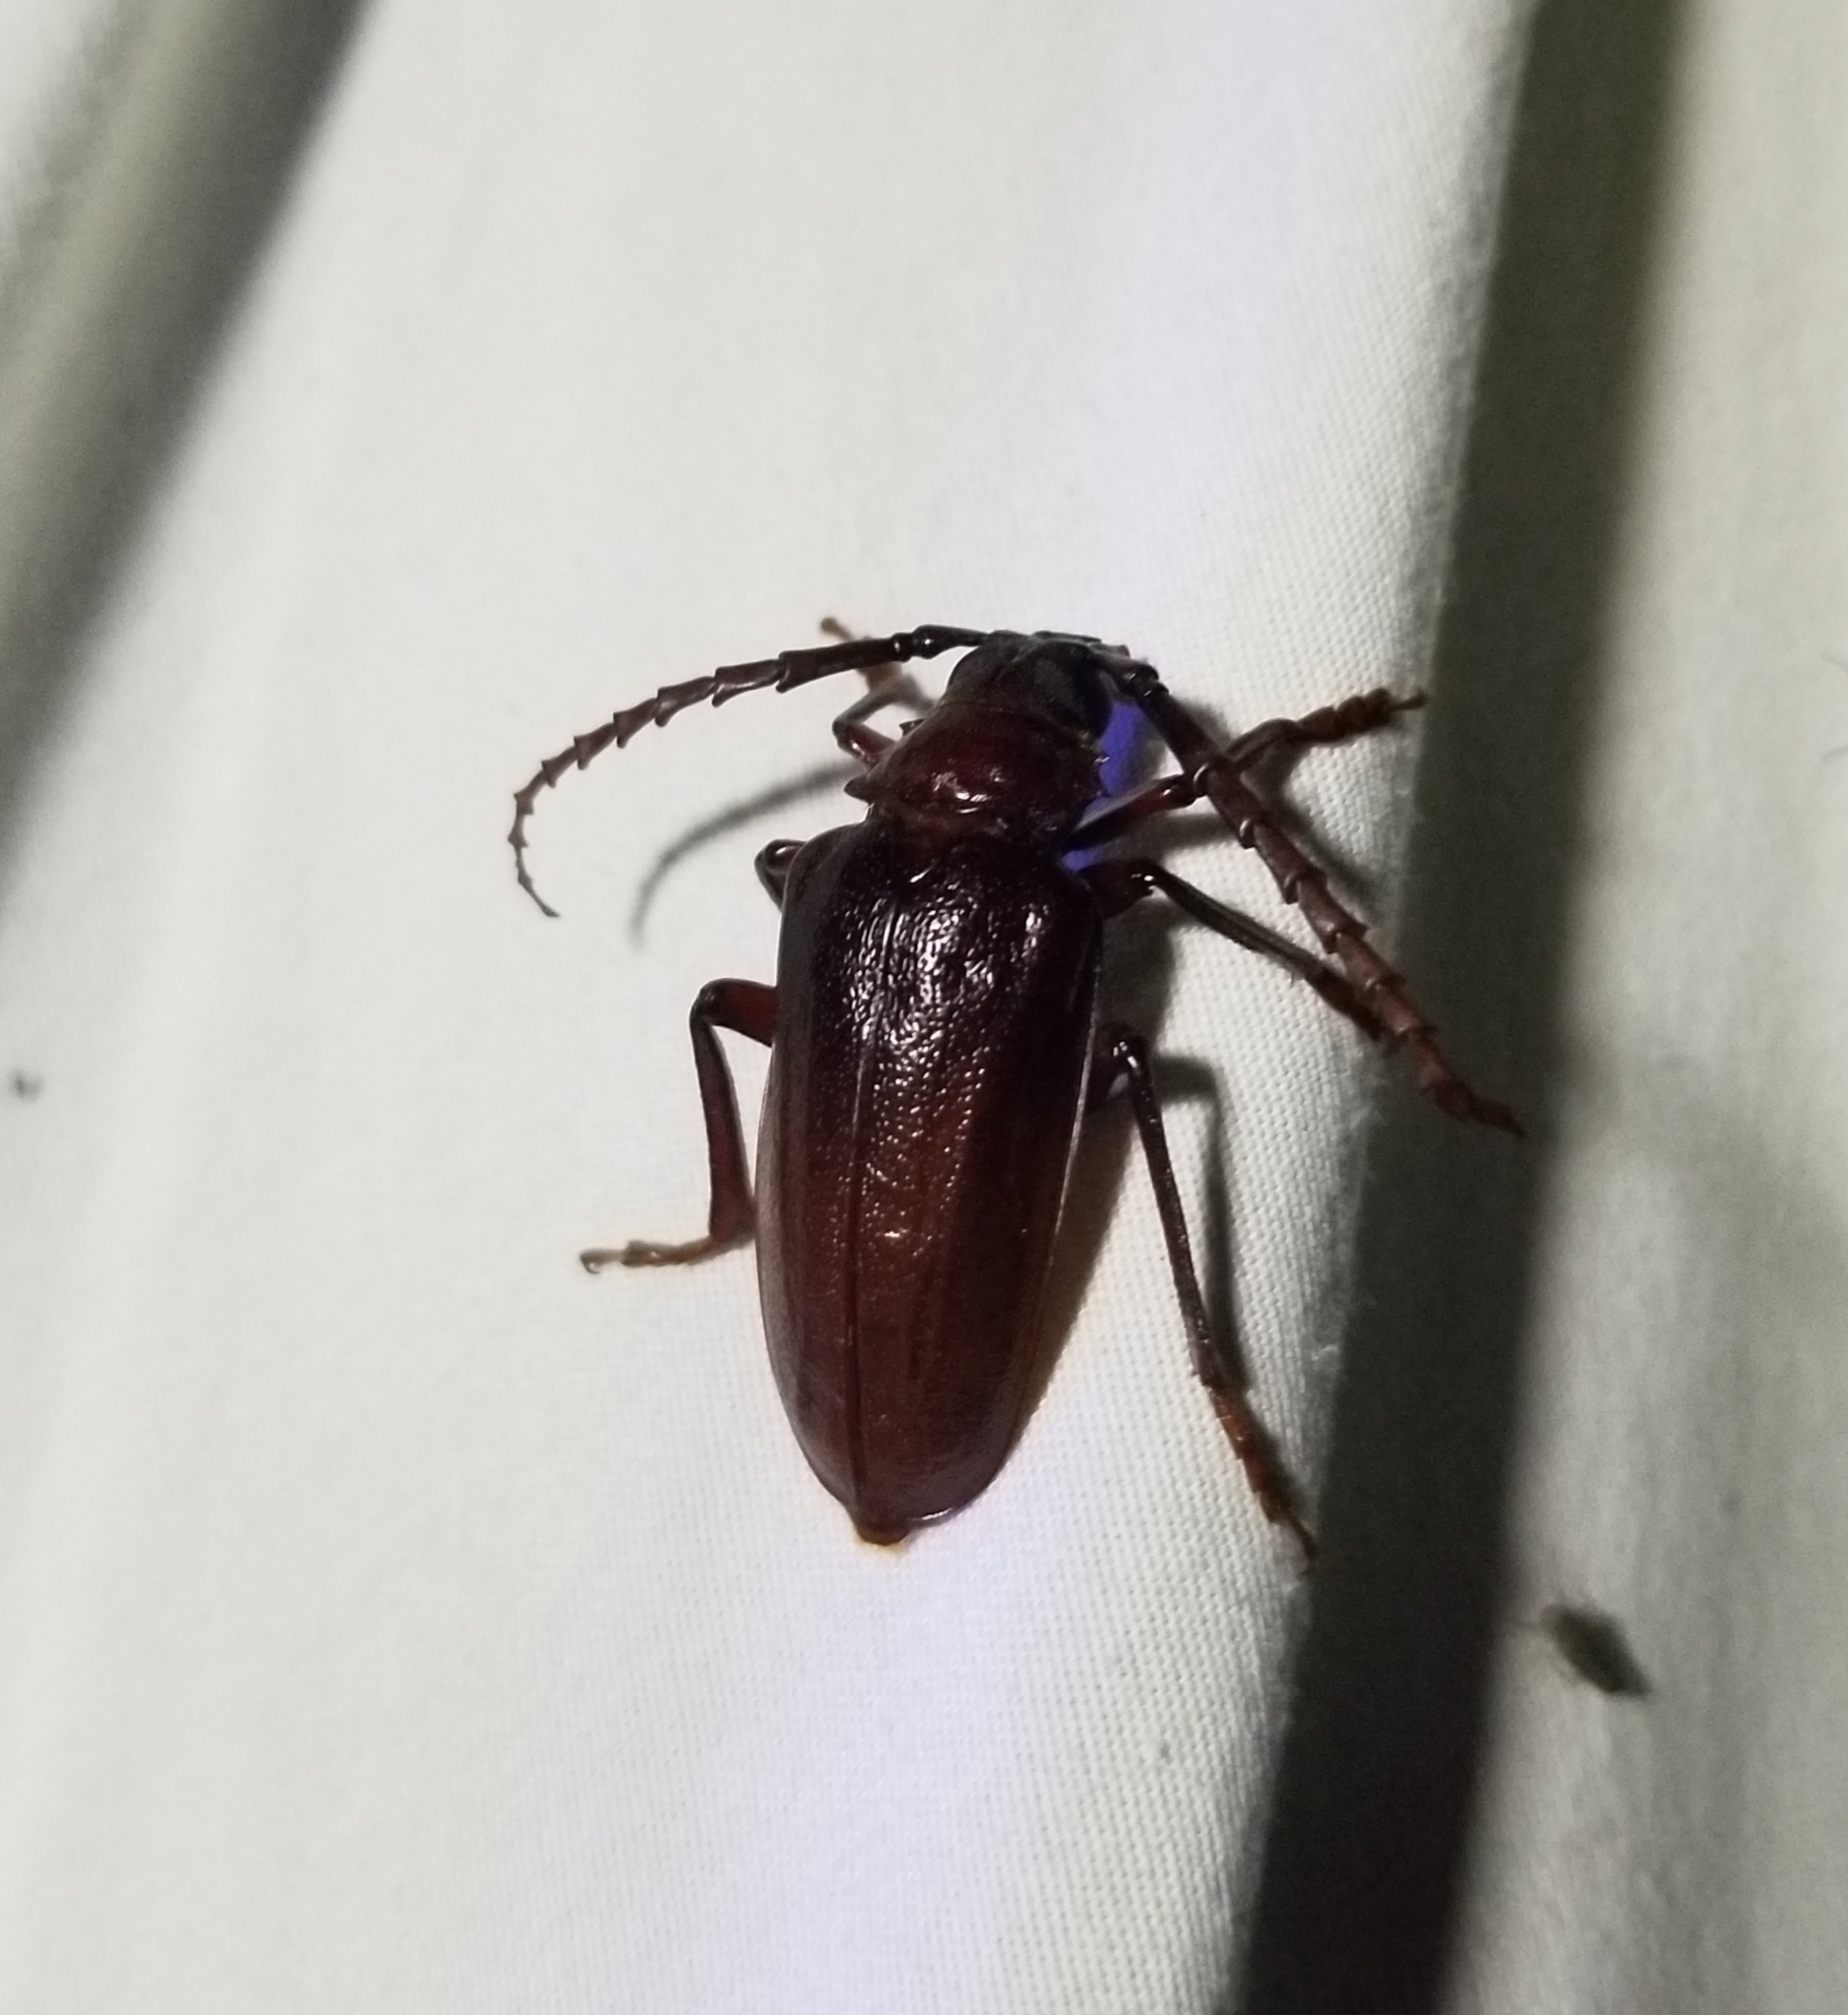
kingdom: Animalia
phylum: Arthropoda
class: Insecta
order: Coleoptera
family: Cerambycidae
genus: Prionus
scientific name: Prionus pocularis
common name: Tooth-necked longhorn beetle
